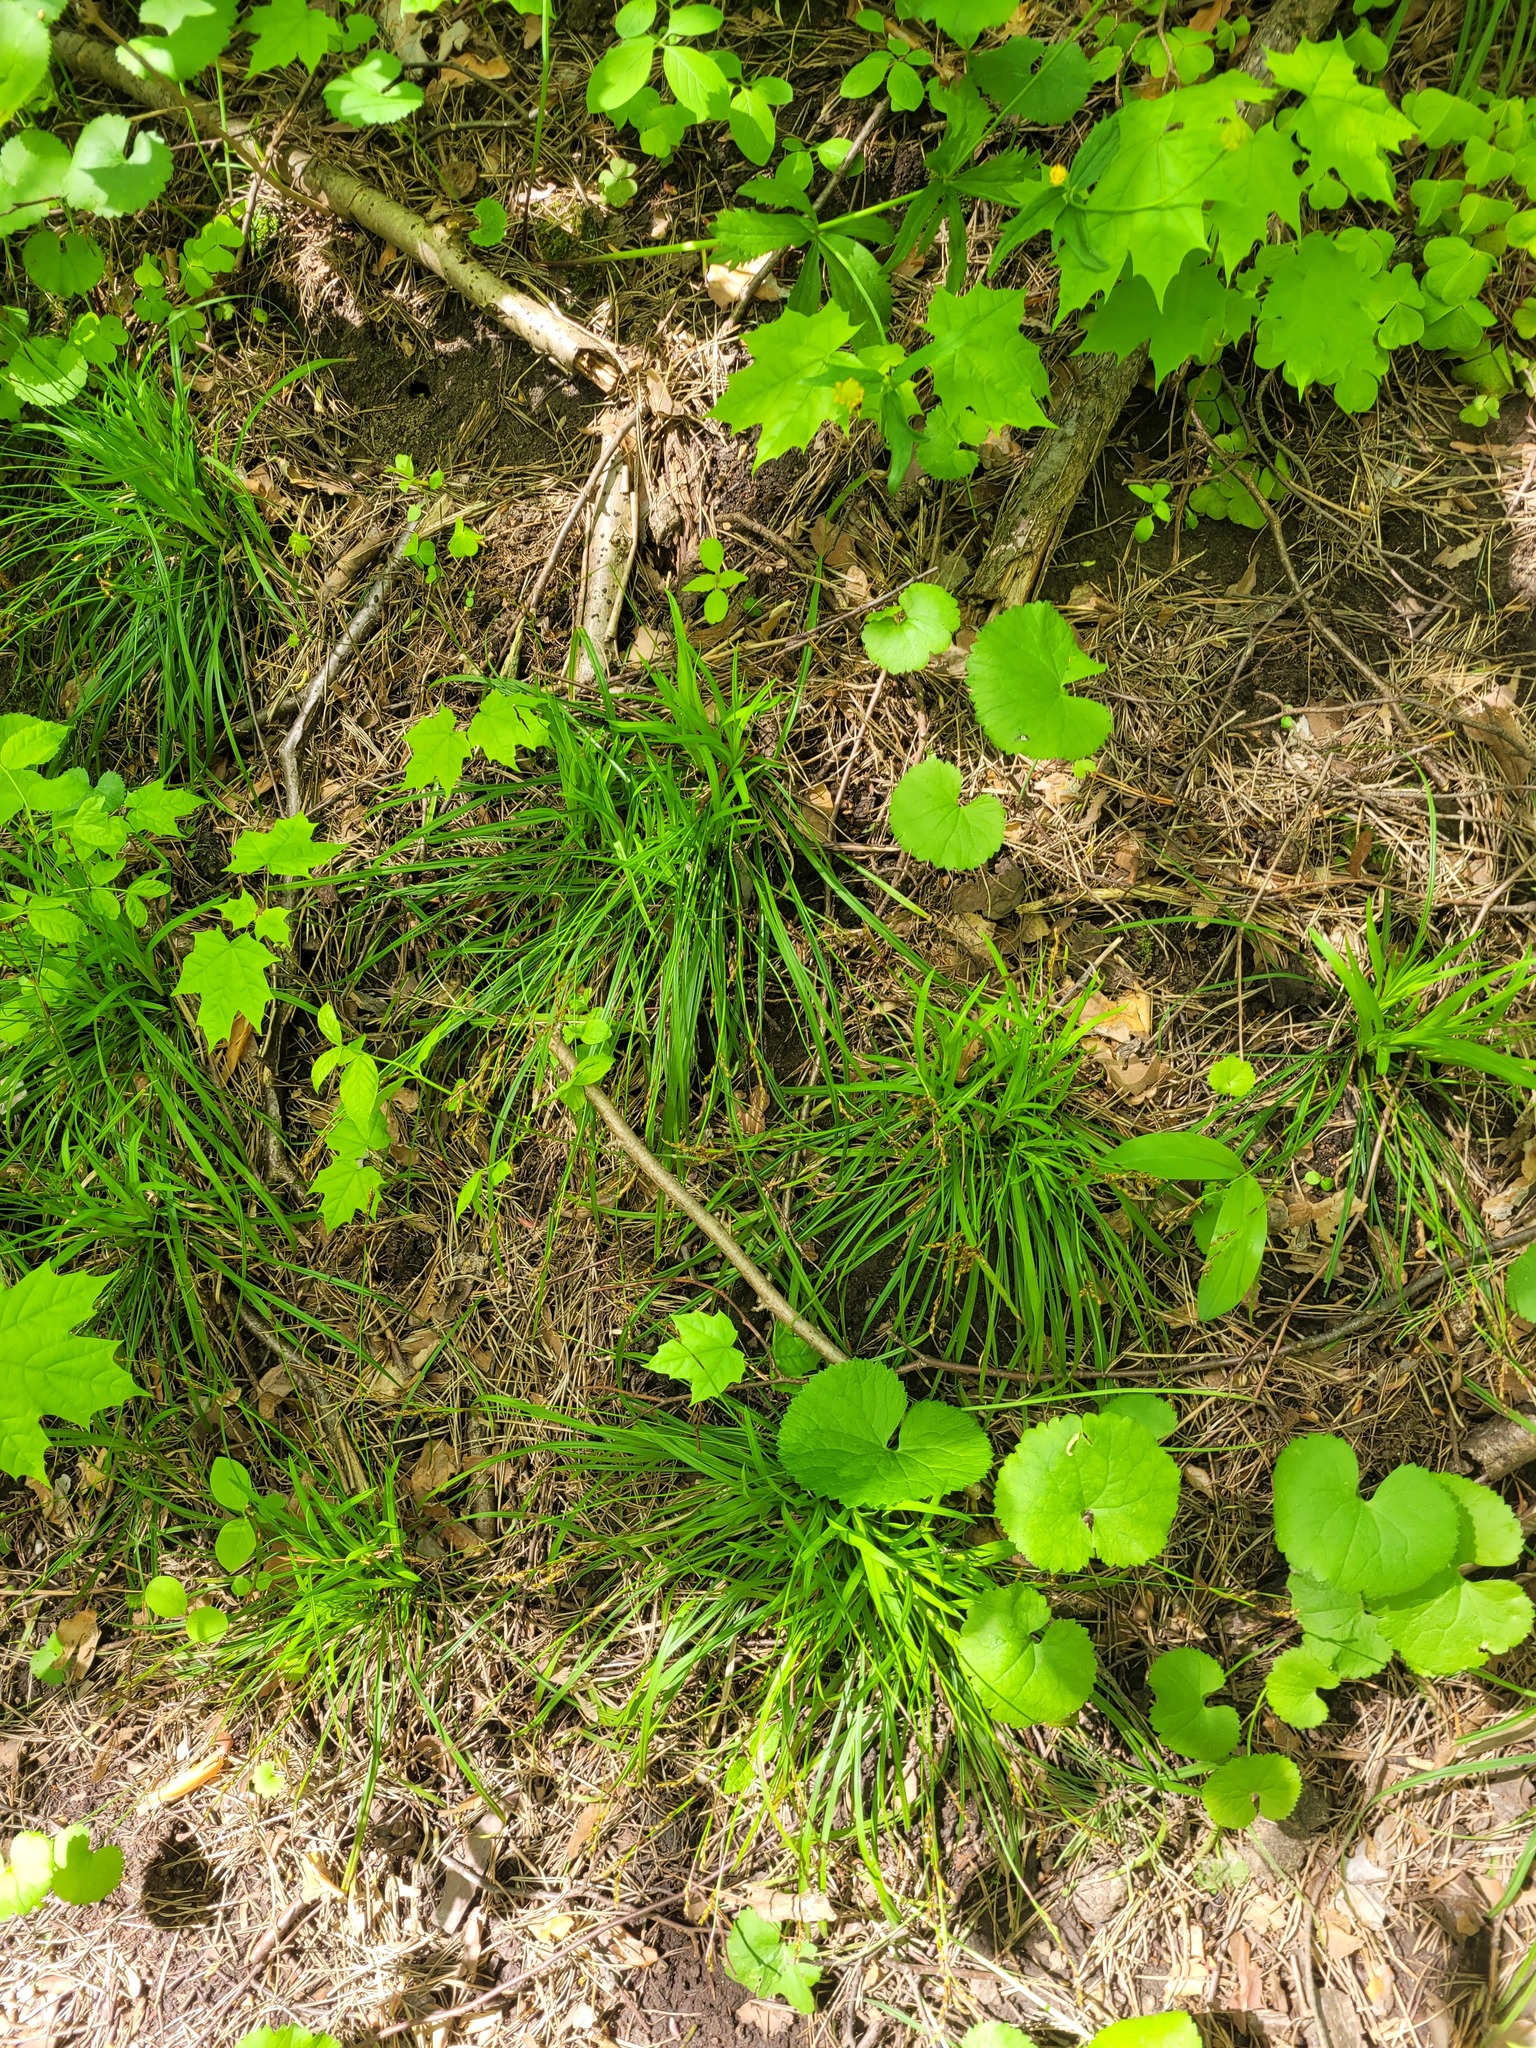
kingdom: Plantae
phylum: Tracheophyta
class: Liliopsida
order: Poales
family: Cyperaceae
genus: Carex
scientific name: Carex digitata
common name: Fingered sedge
